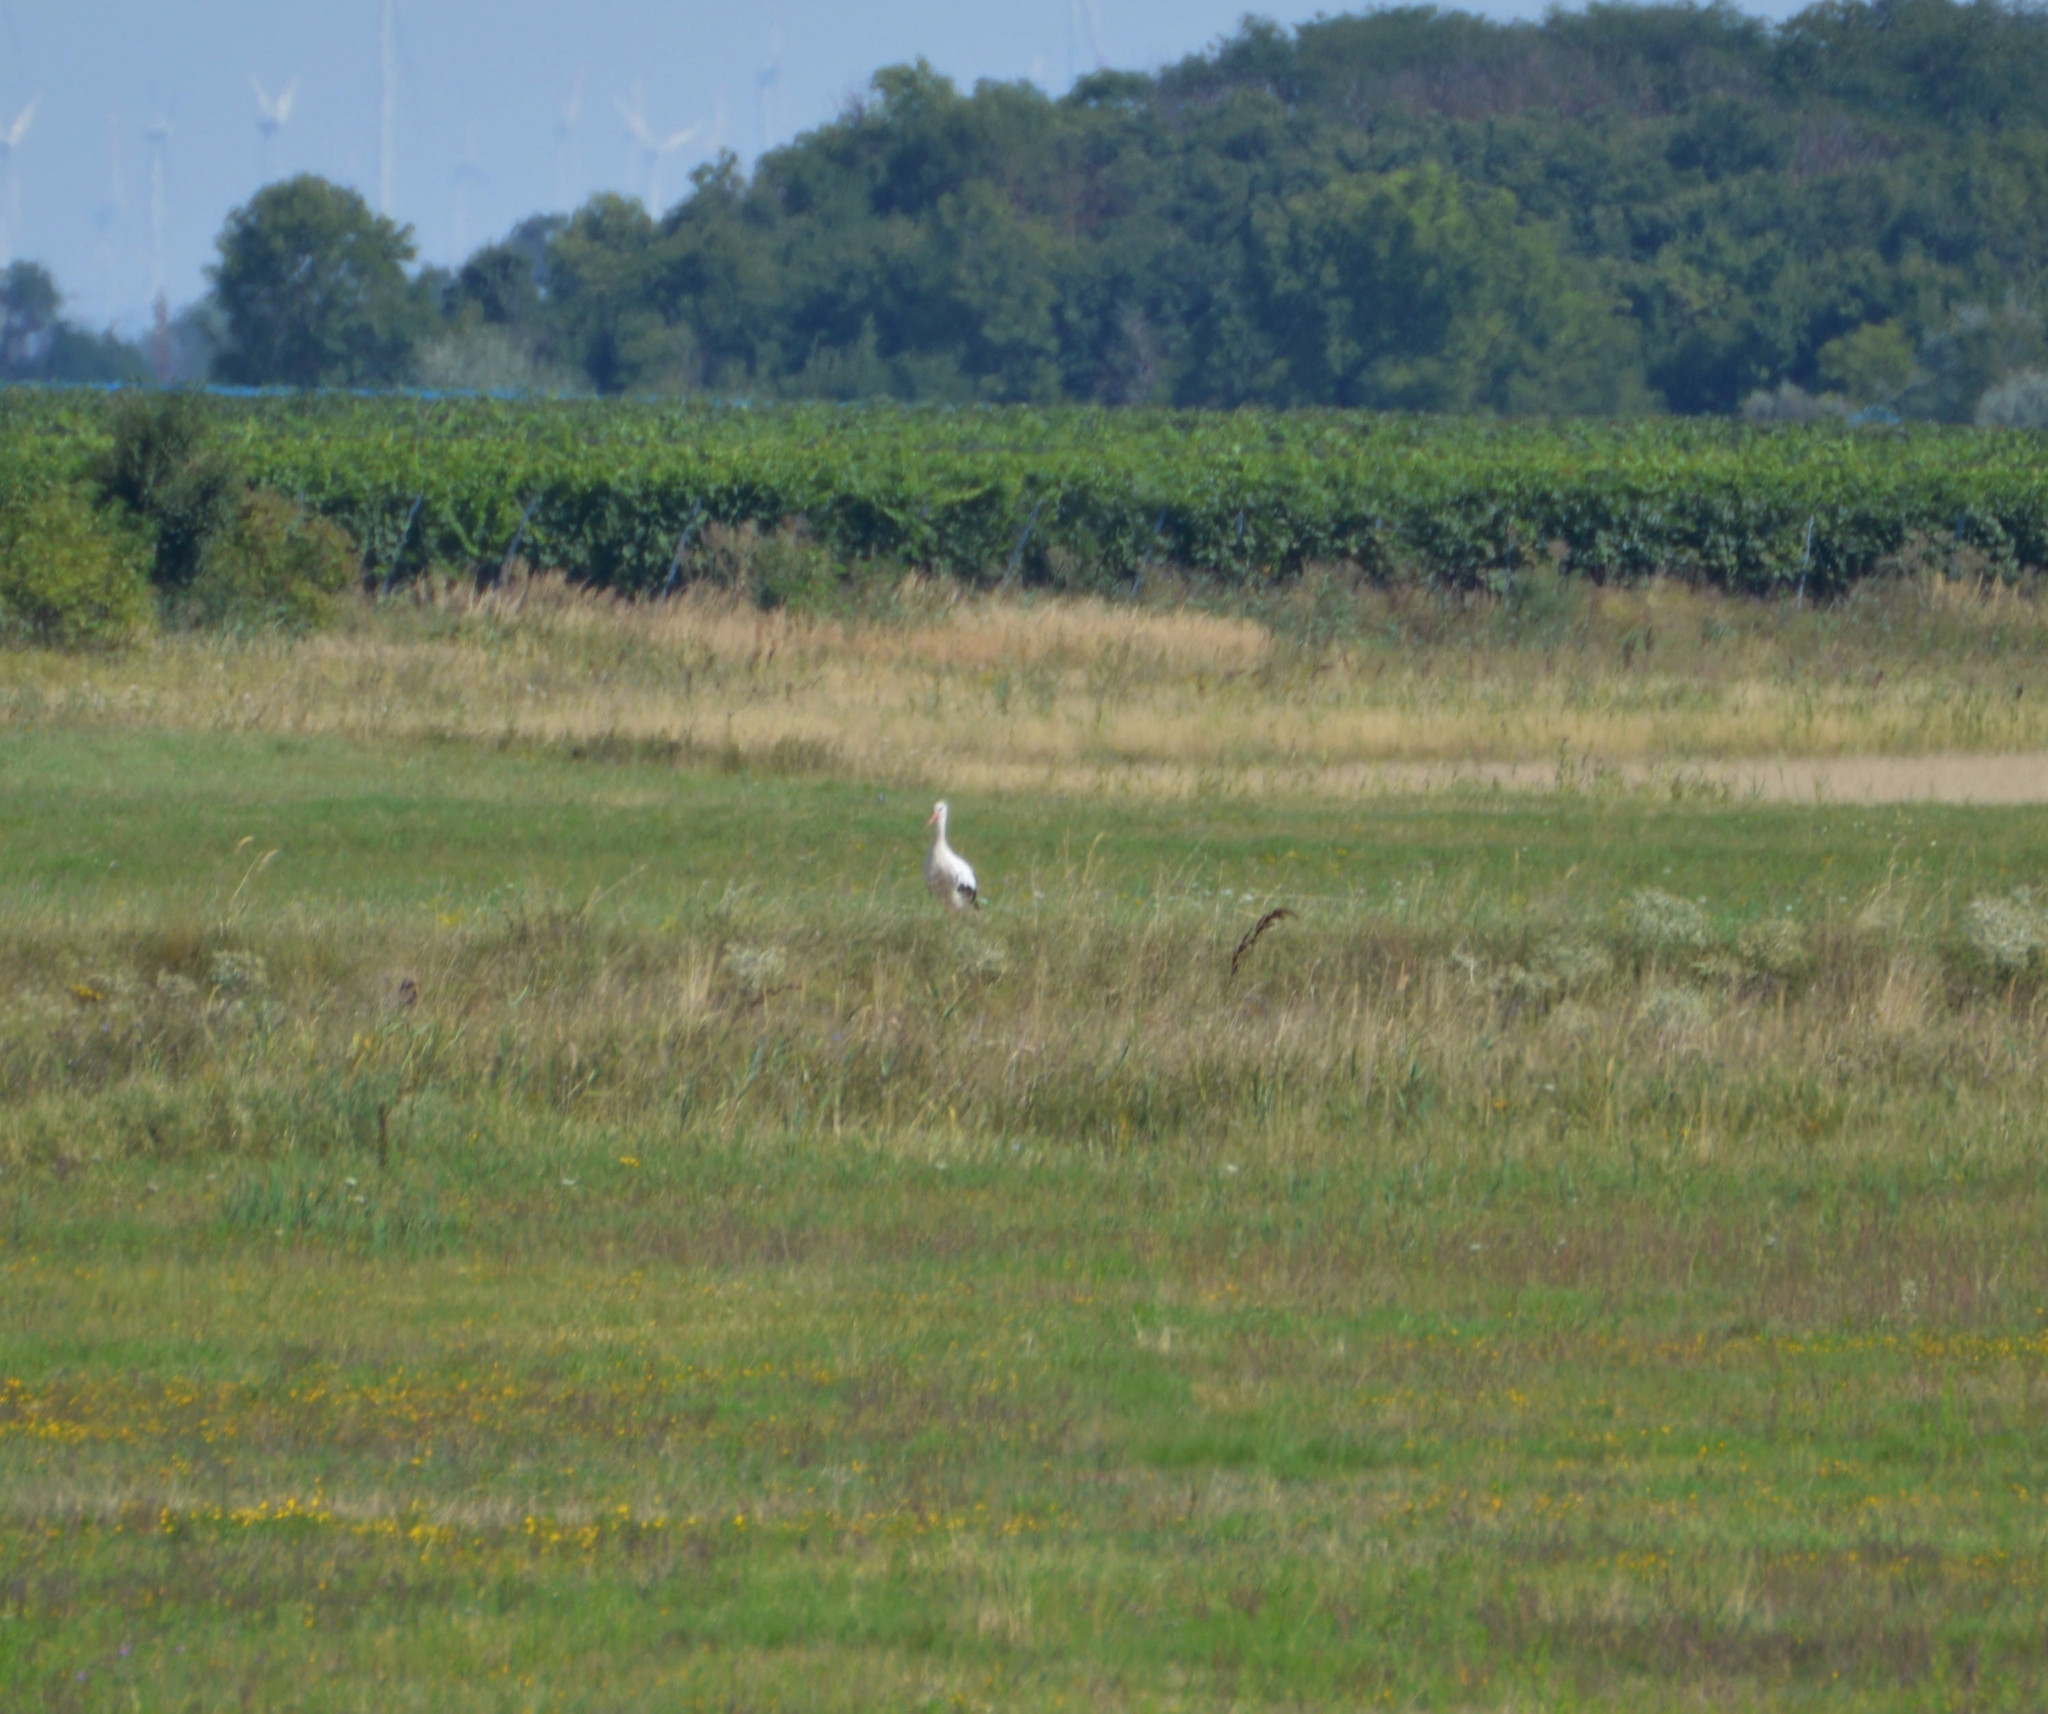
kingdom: Animalia
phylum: Chordata
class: Aves
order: Ciconiiformes
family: Ciconiidae
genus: Ciconia
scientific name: Ciconia ciconia
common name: White stork
